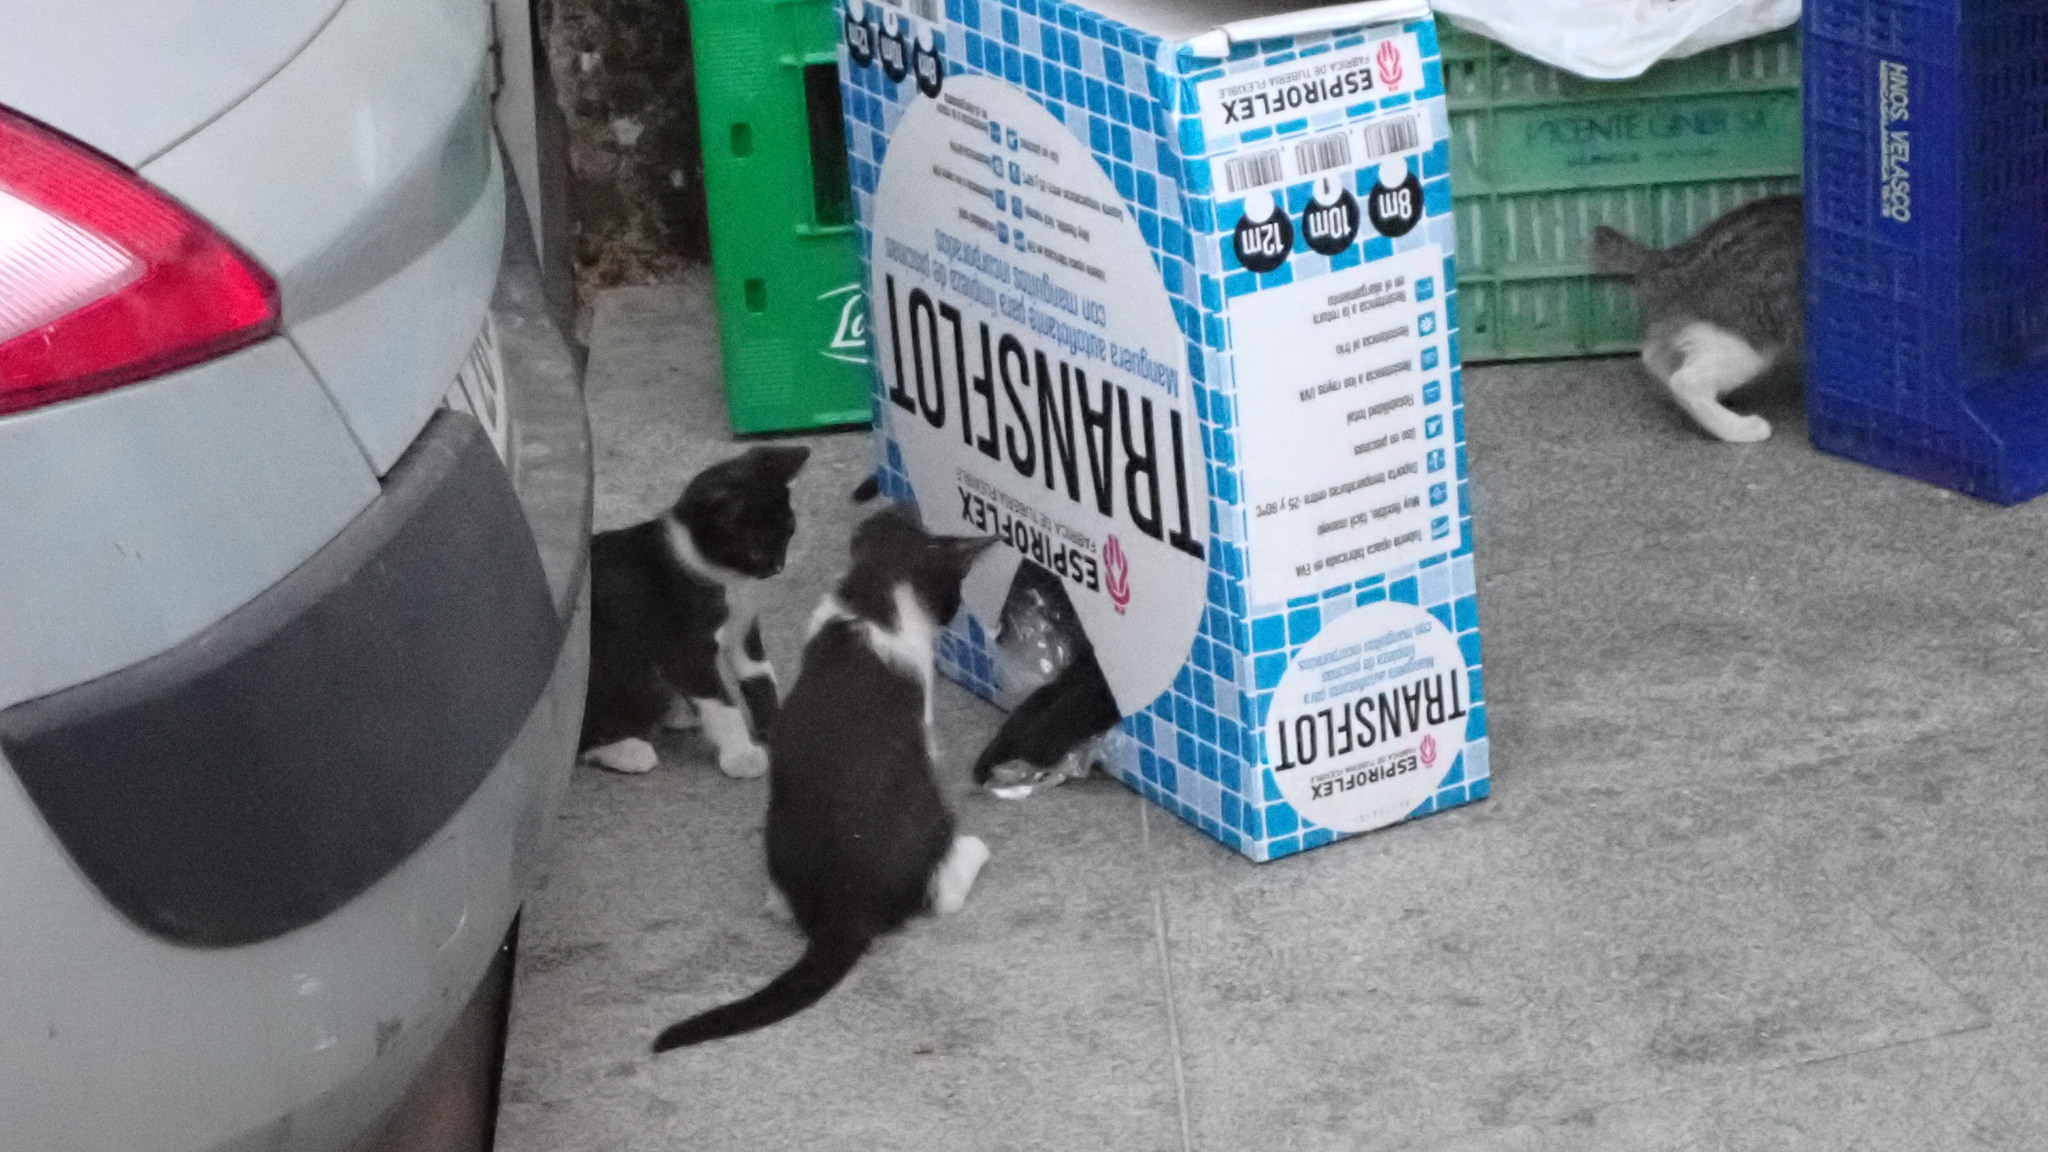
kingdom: Animalia
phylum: Chordata
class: Mammalia
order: Carnivora
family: Felidae
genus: Felis
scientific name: Felis catus
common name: Domestic cat
